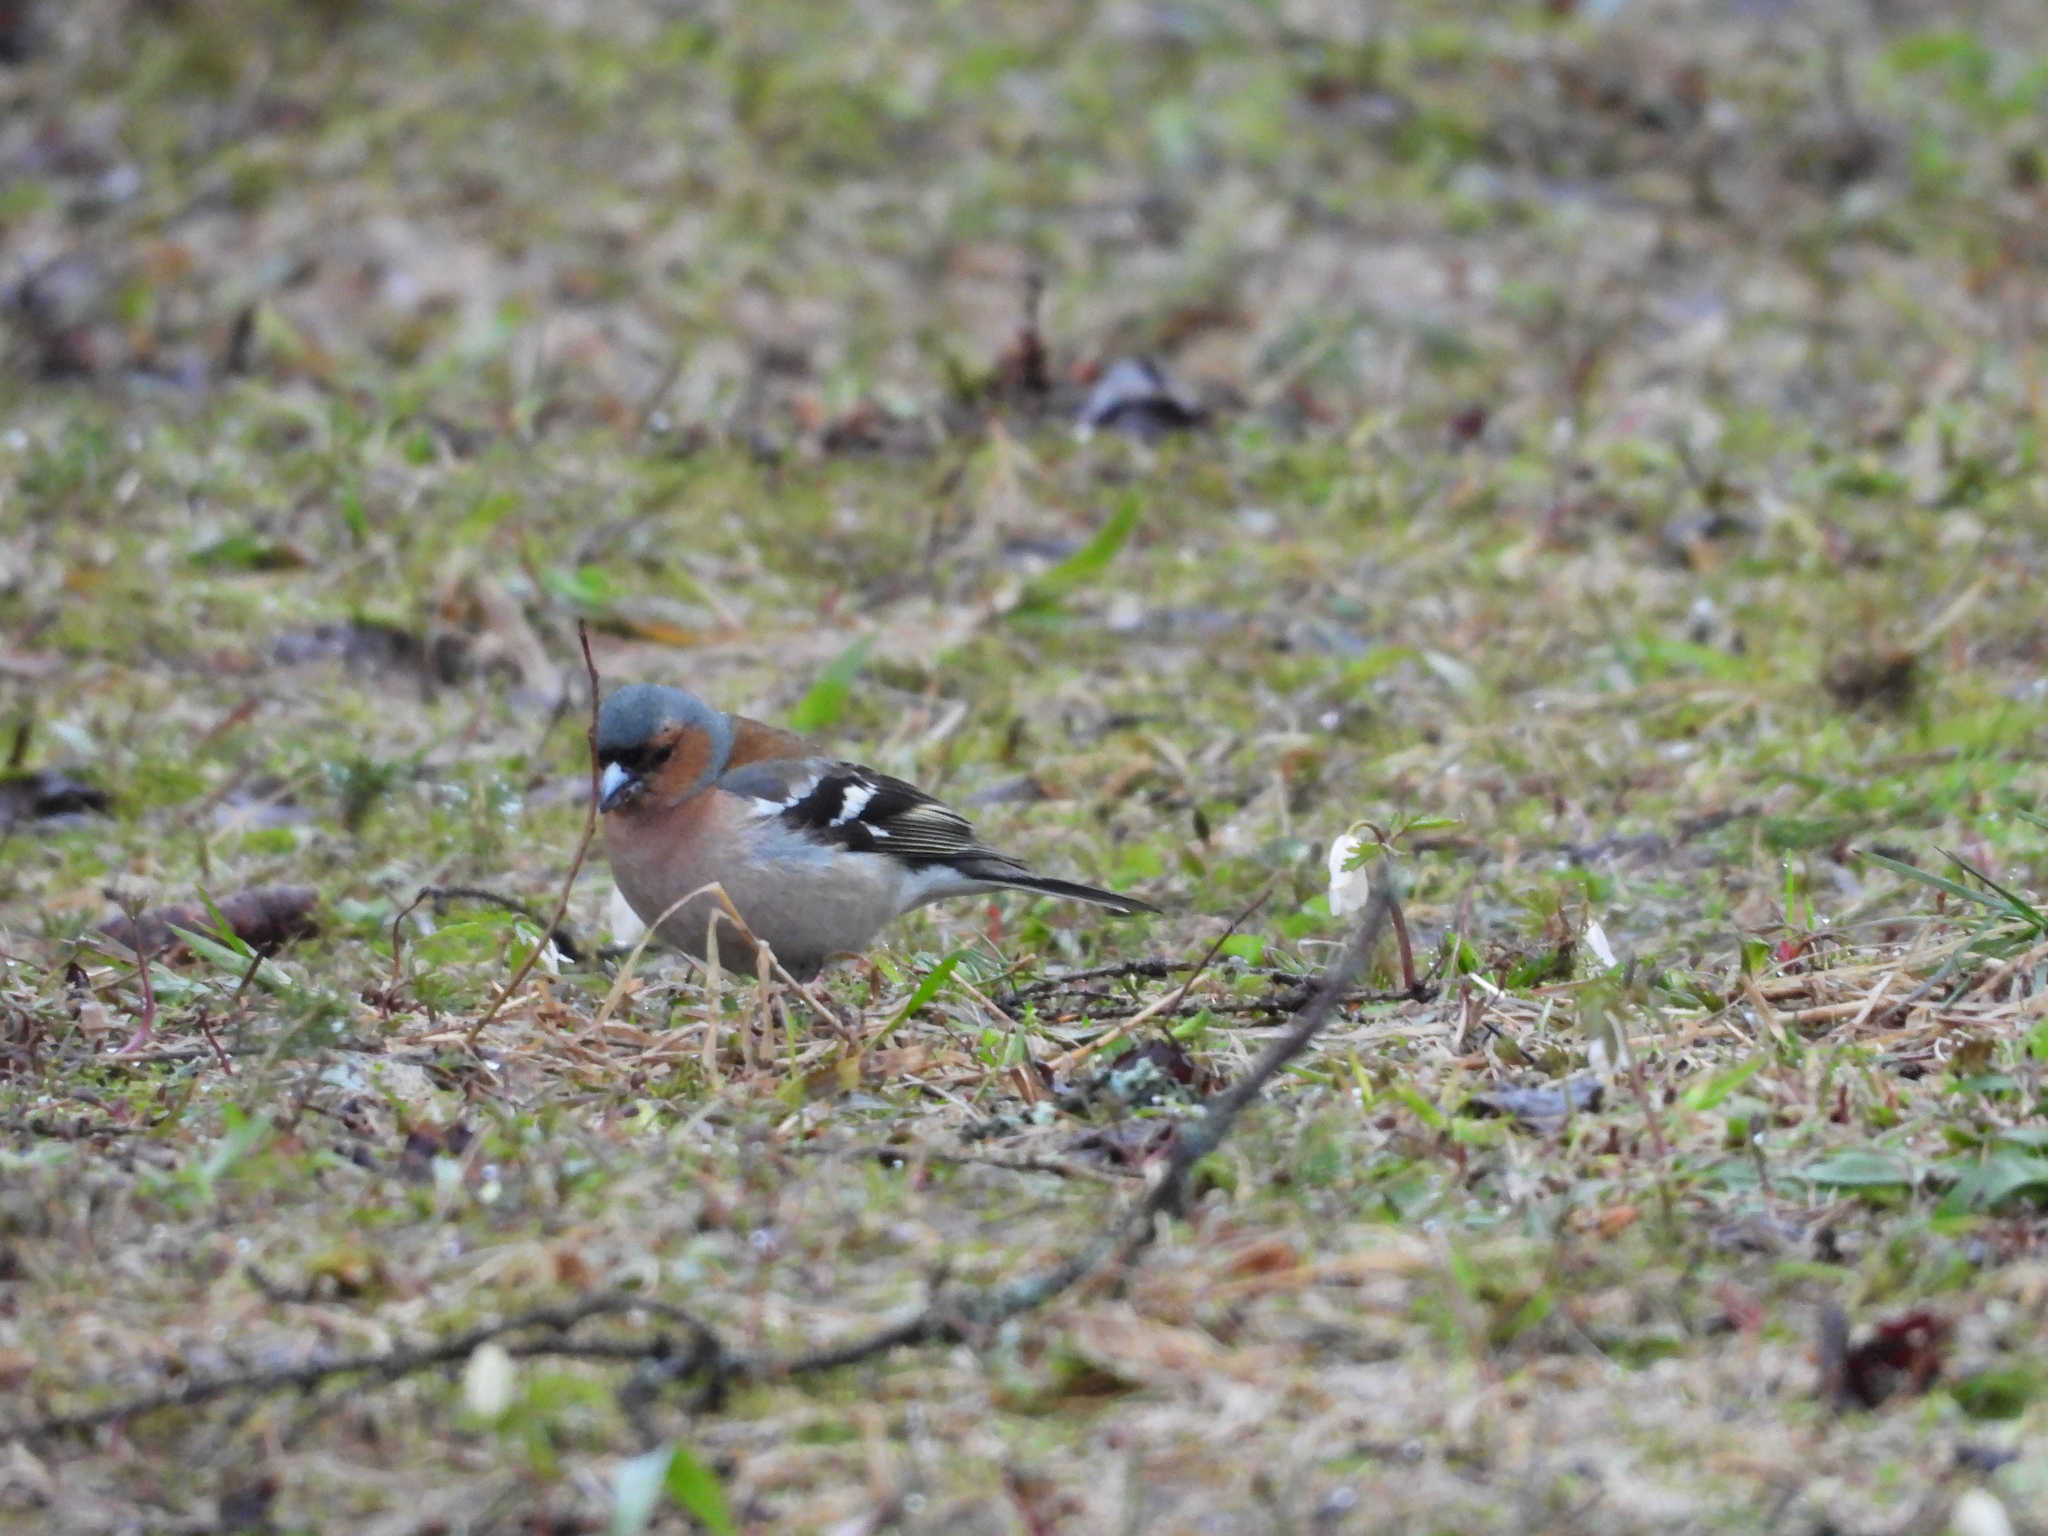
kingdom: Animalia
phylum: Chordata
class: Aves
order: Passeriformes
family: Fringillidae
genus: Fringilla
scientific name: Fringilla coelebs
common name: Common chaffinch
